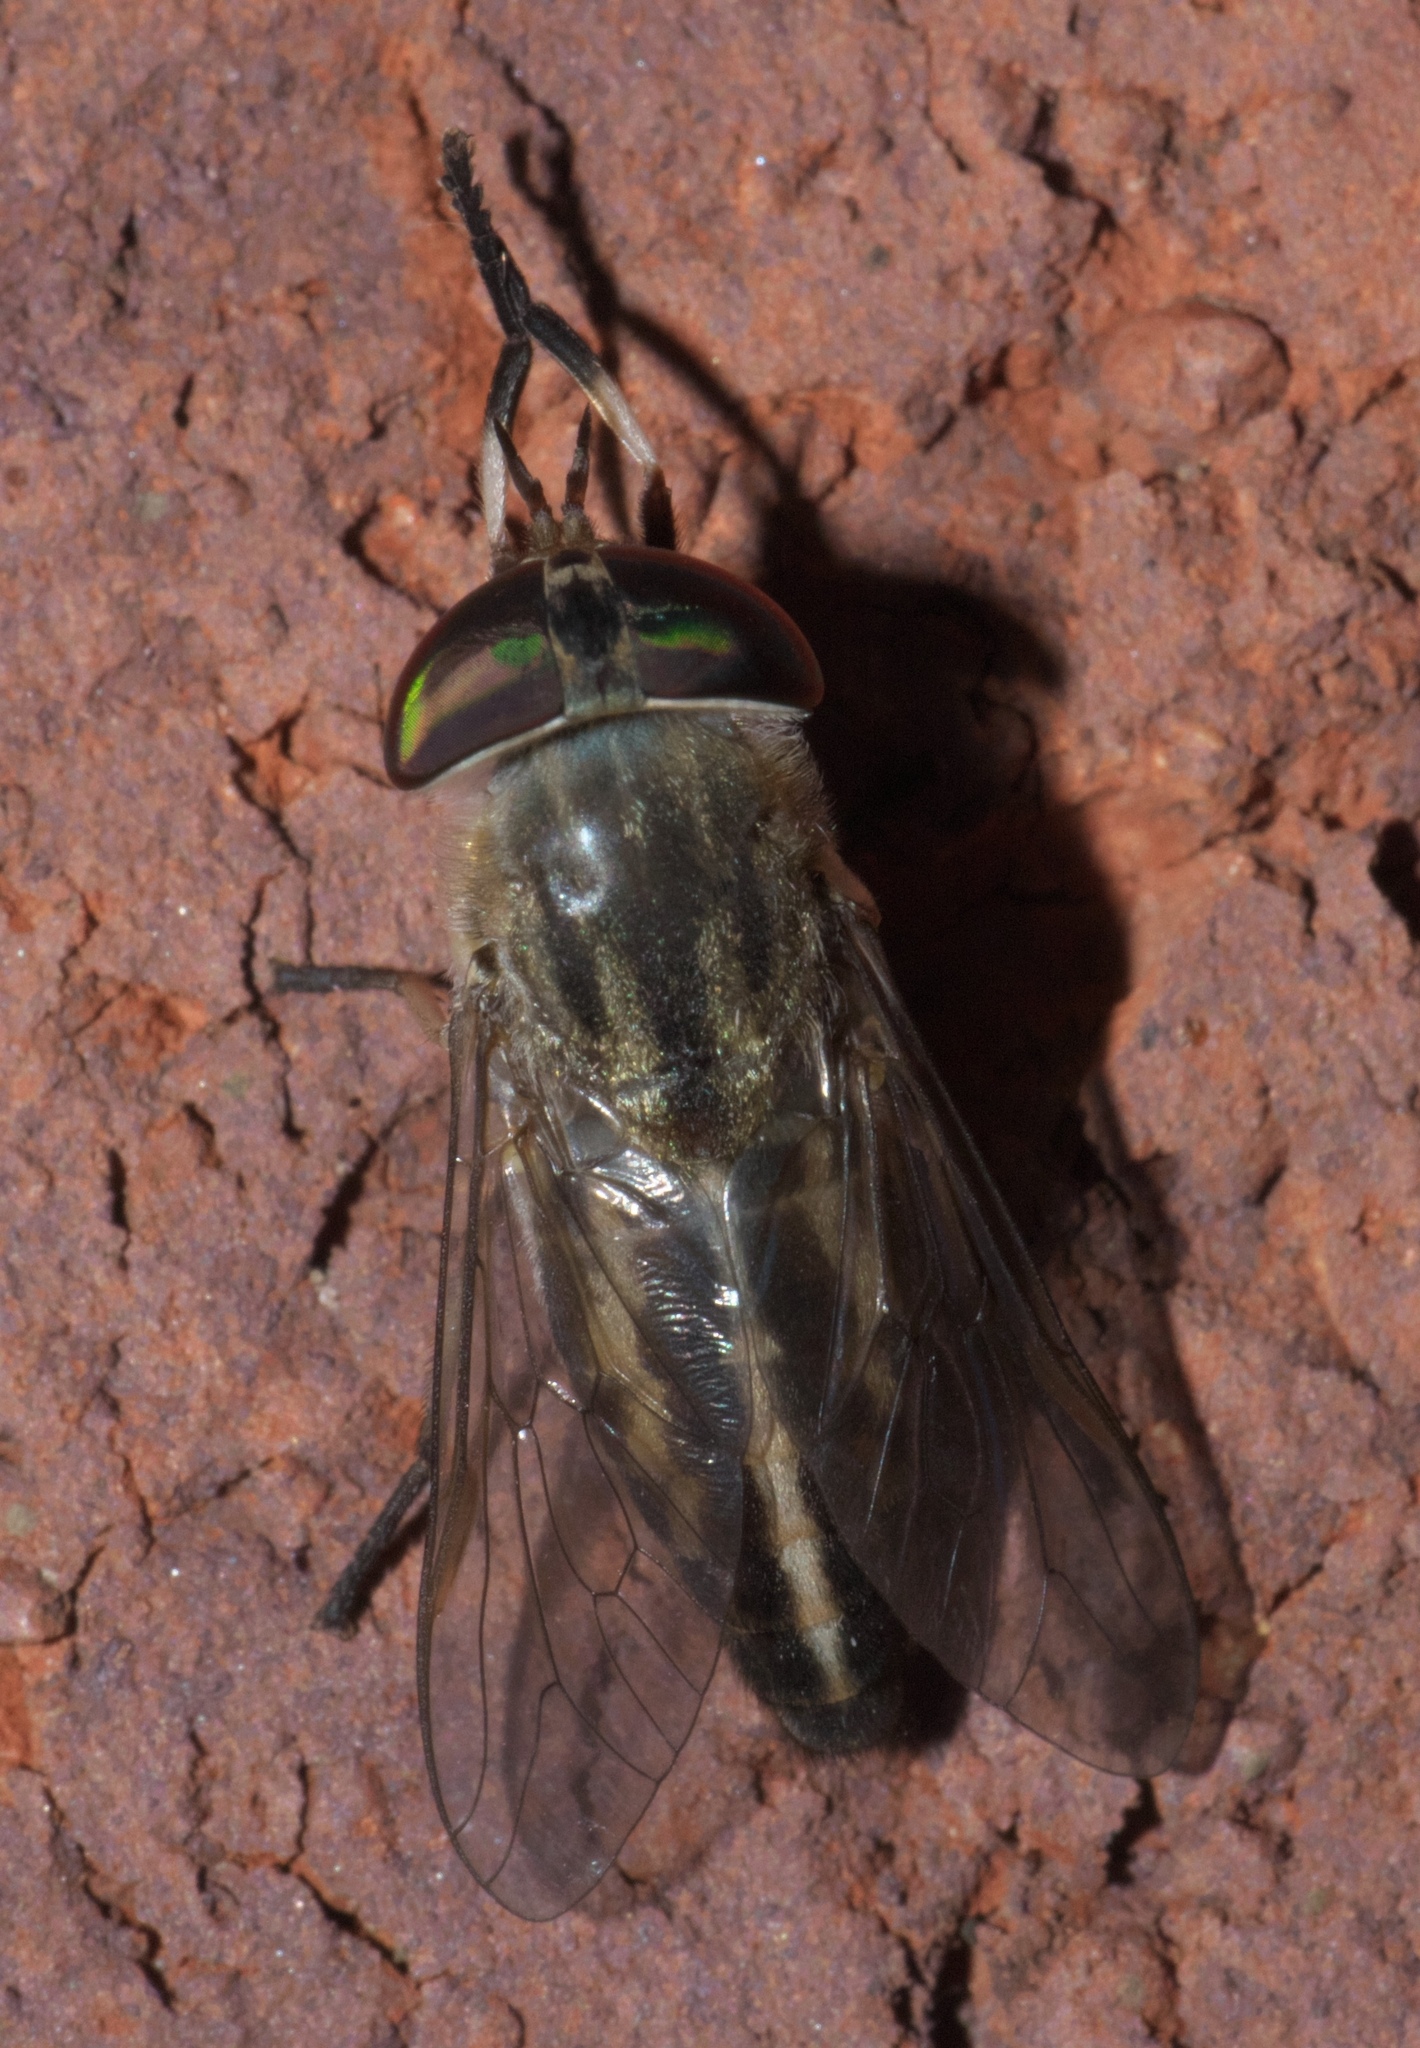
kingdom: Animalia
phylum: Arthropoda
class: Insecta
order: Diptera
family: Tabanidae
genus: Tabanus
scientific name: Tabanus subsimilis
